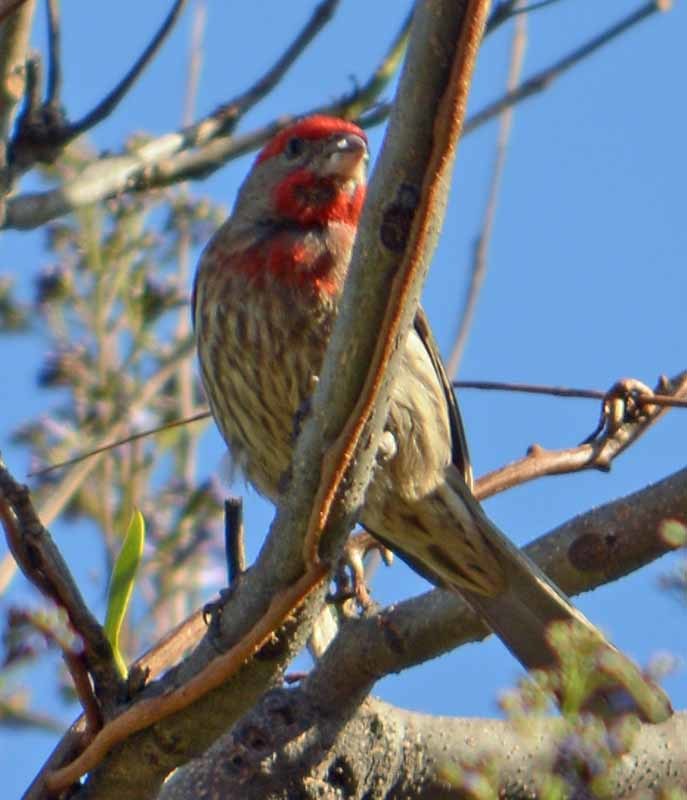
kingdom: Animalia
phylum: Chordata
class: Aves
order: Passeriformes
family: Fringillidae
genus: Haemorhous
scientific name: Haemorhous mexicanus
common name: House finch
